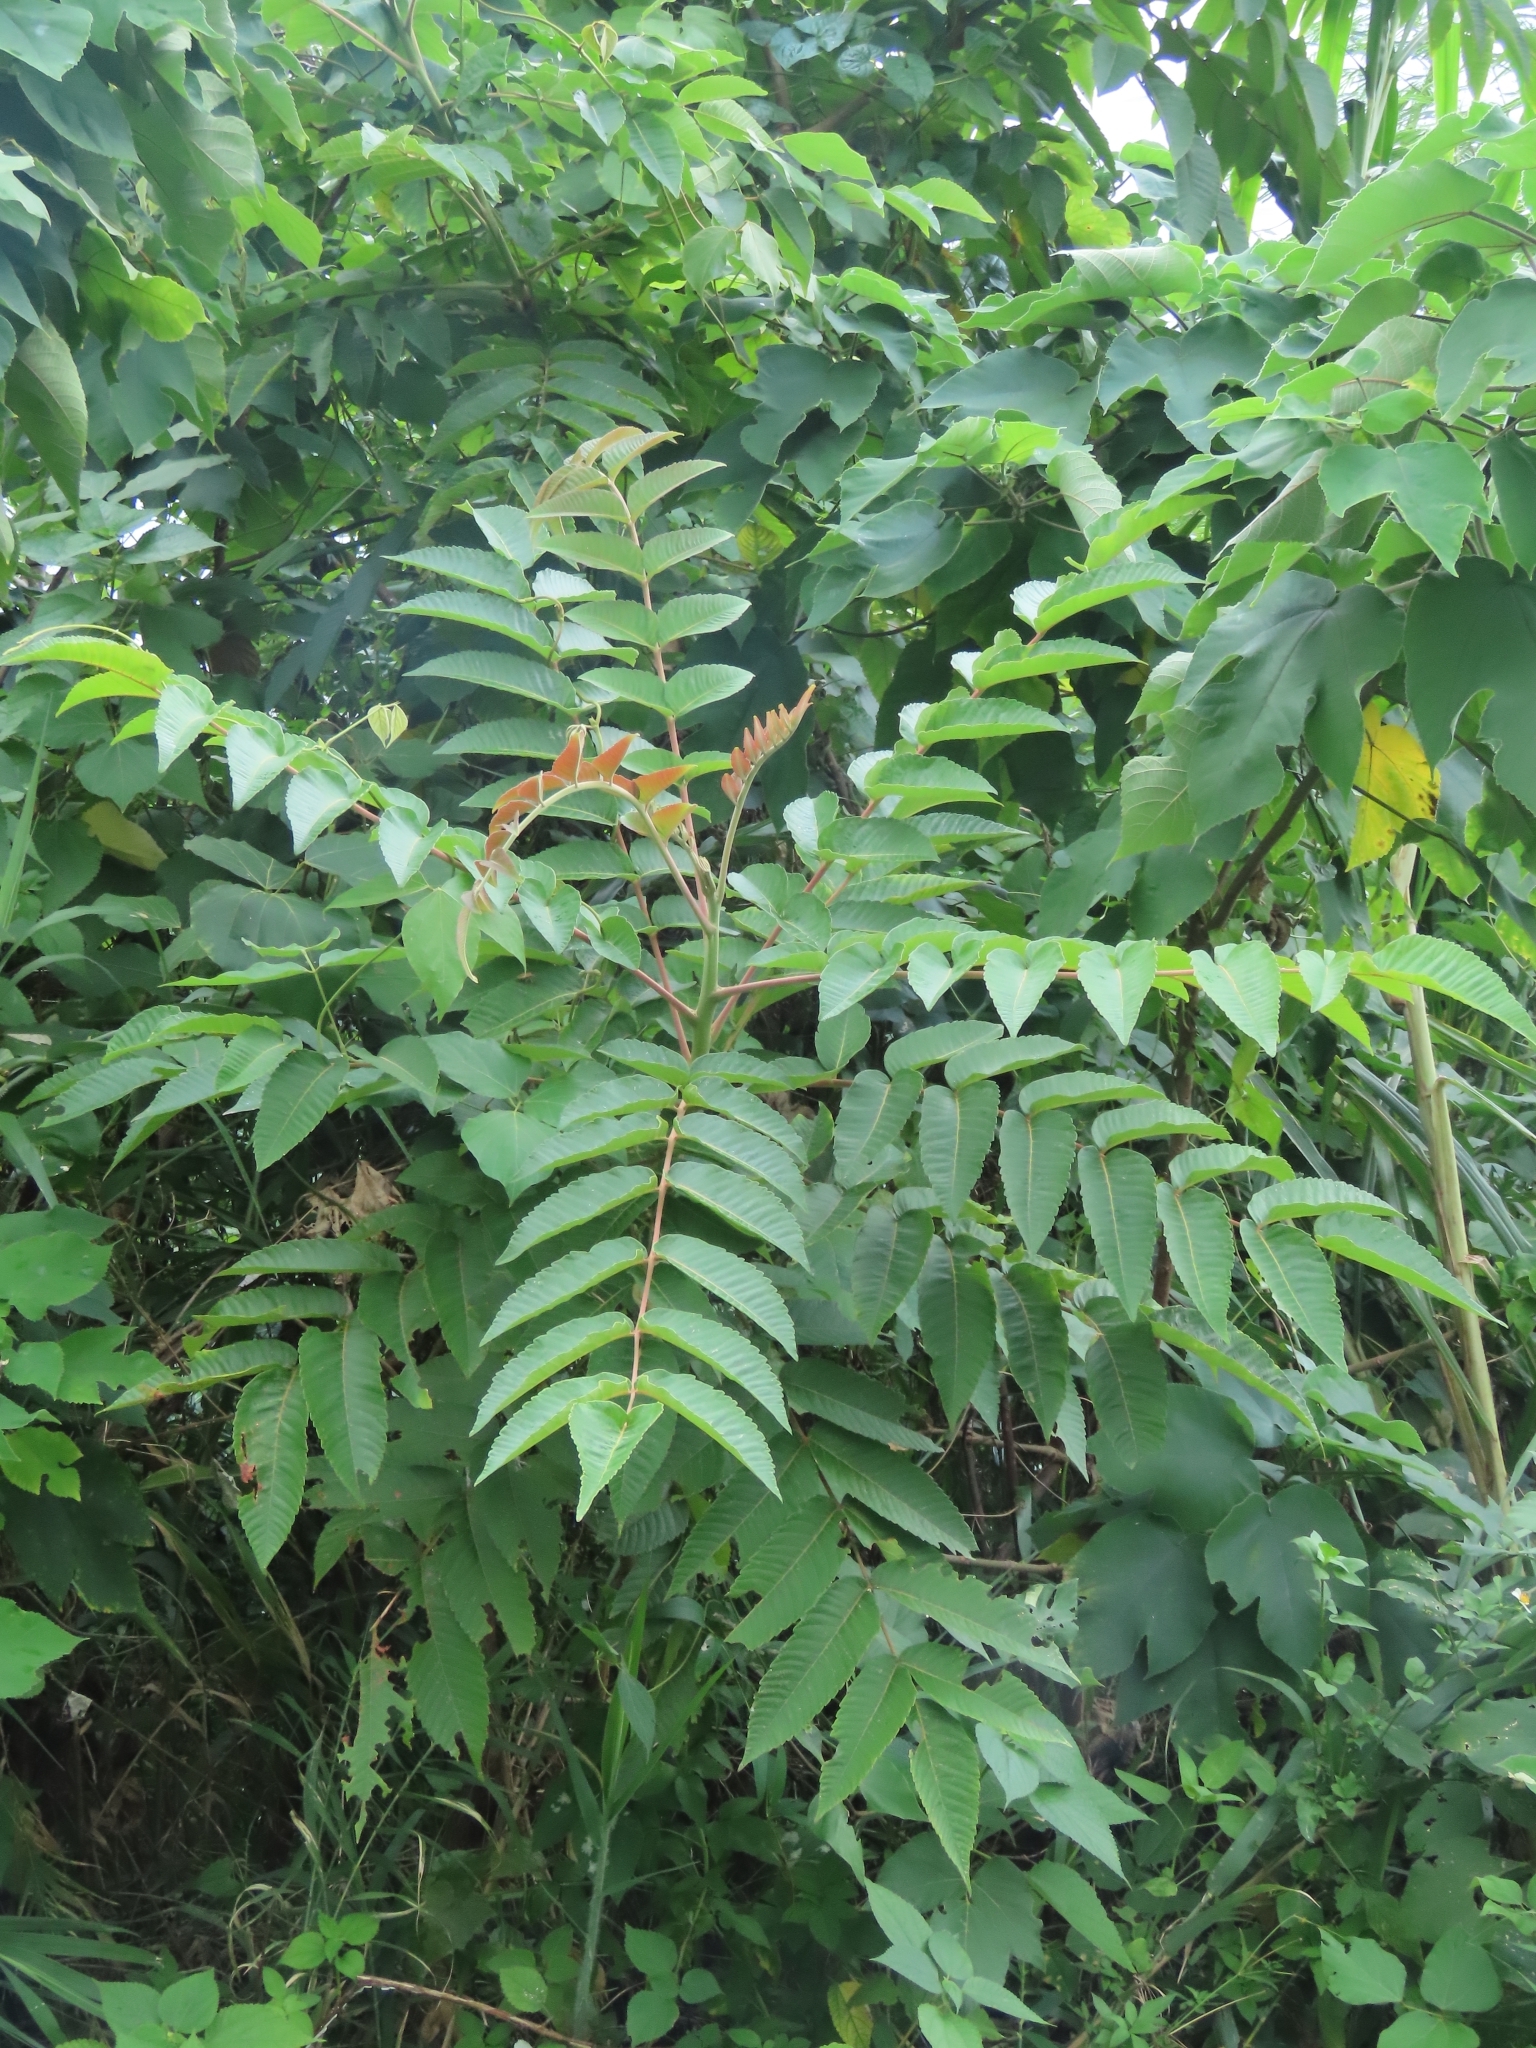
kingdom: Plantae
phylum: Tracheophyta
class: Magnoliopsida
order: Sapindales
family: Anacardiaceae
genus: Rhus
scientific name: Rhus chinensis
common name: Chinese gall
